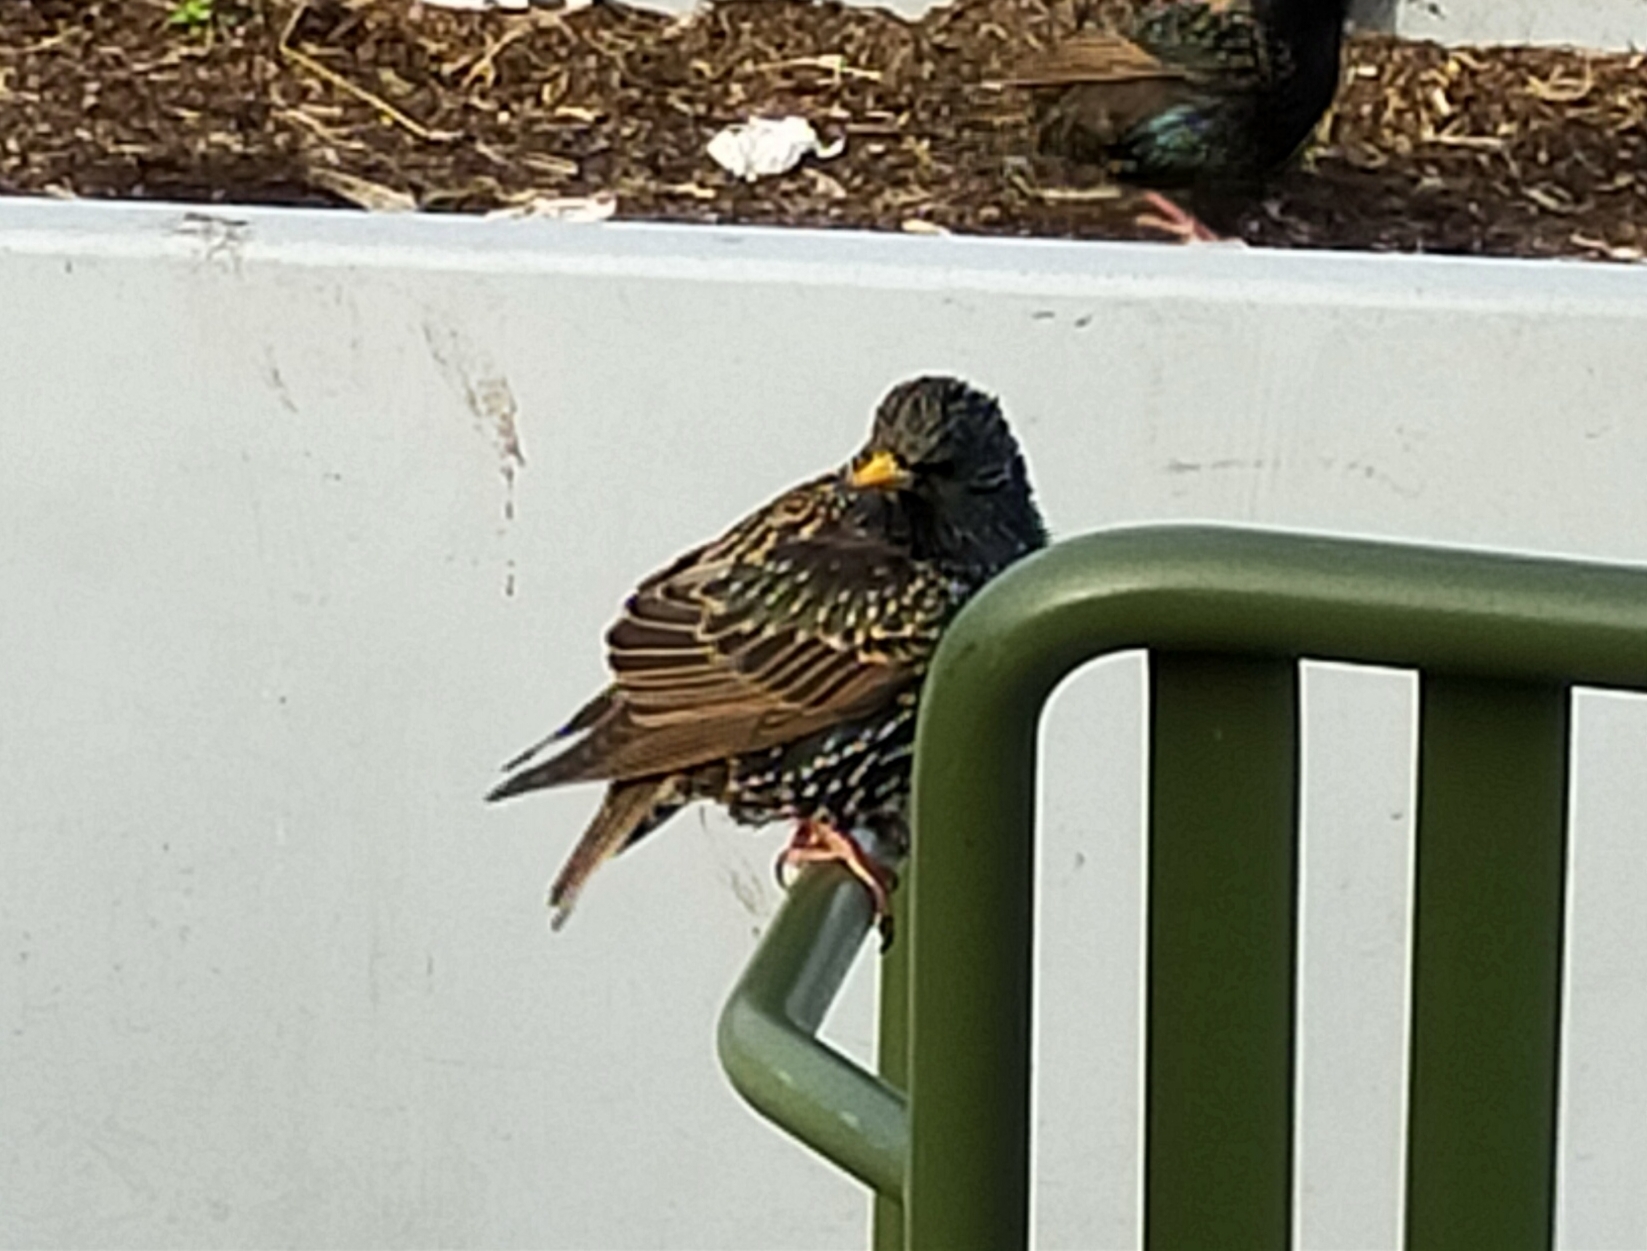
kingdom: Animalia
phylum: Chordata
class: Aves
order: Passeriformes
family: Sturnidae
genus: Sturnus
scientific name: Sturnus vulgaris
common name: Common starling
